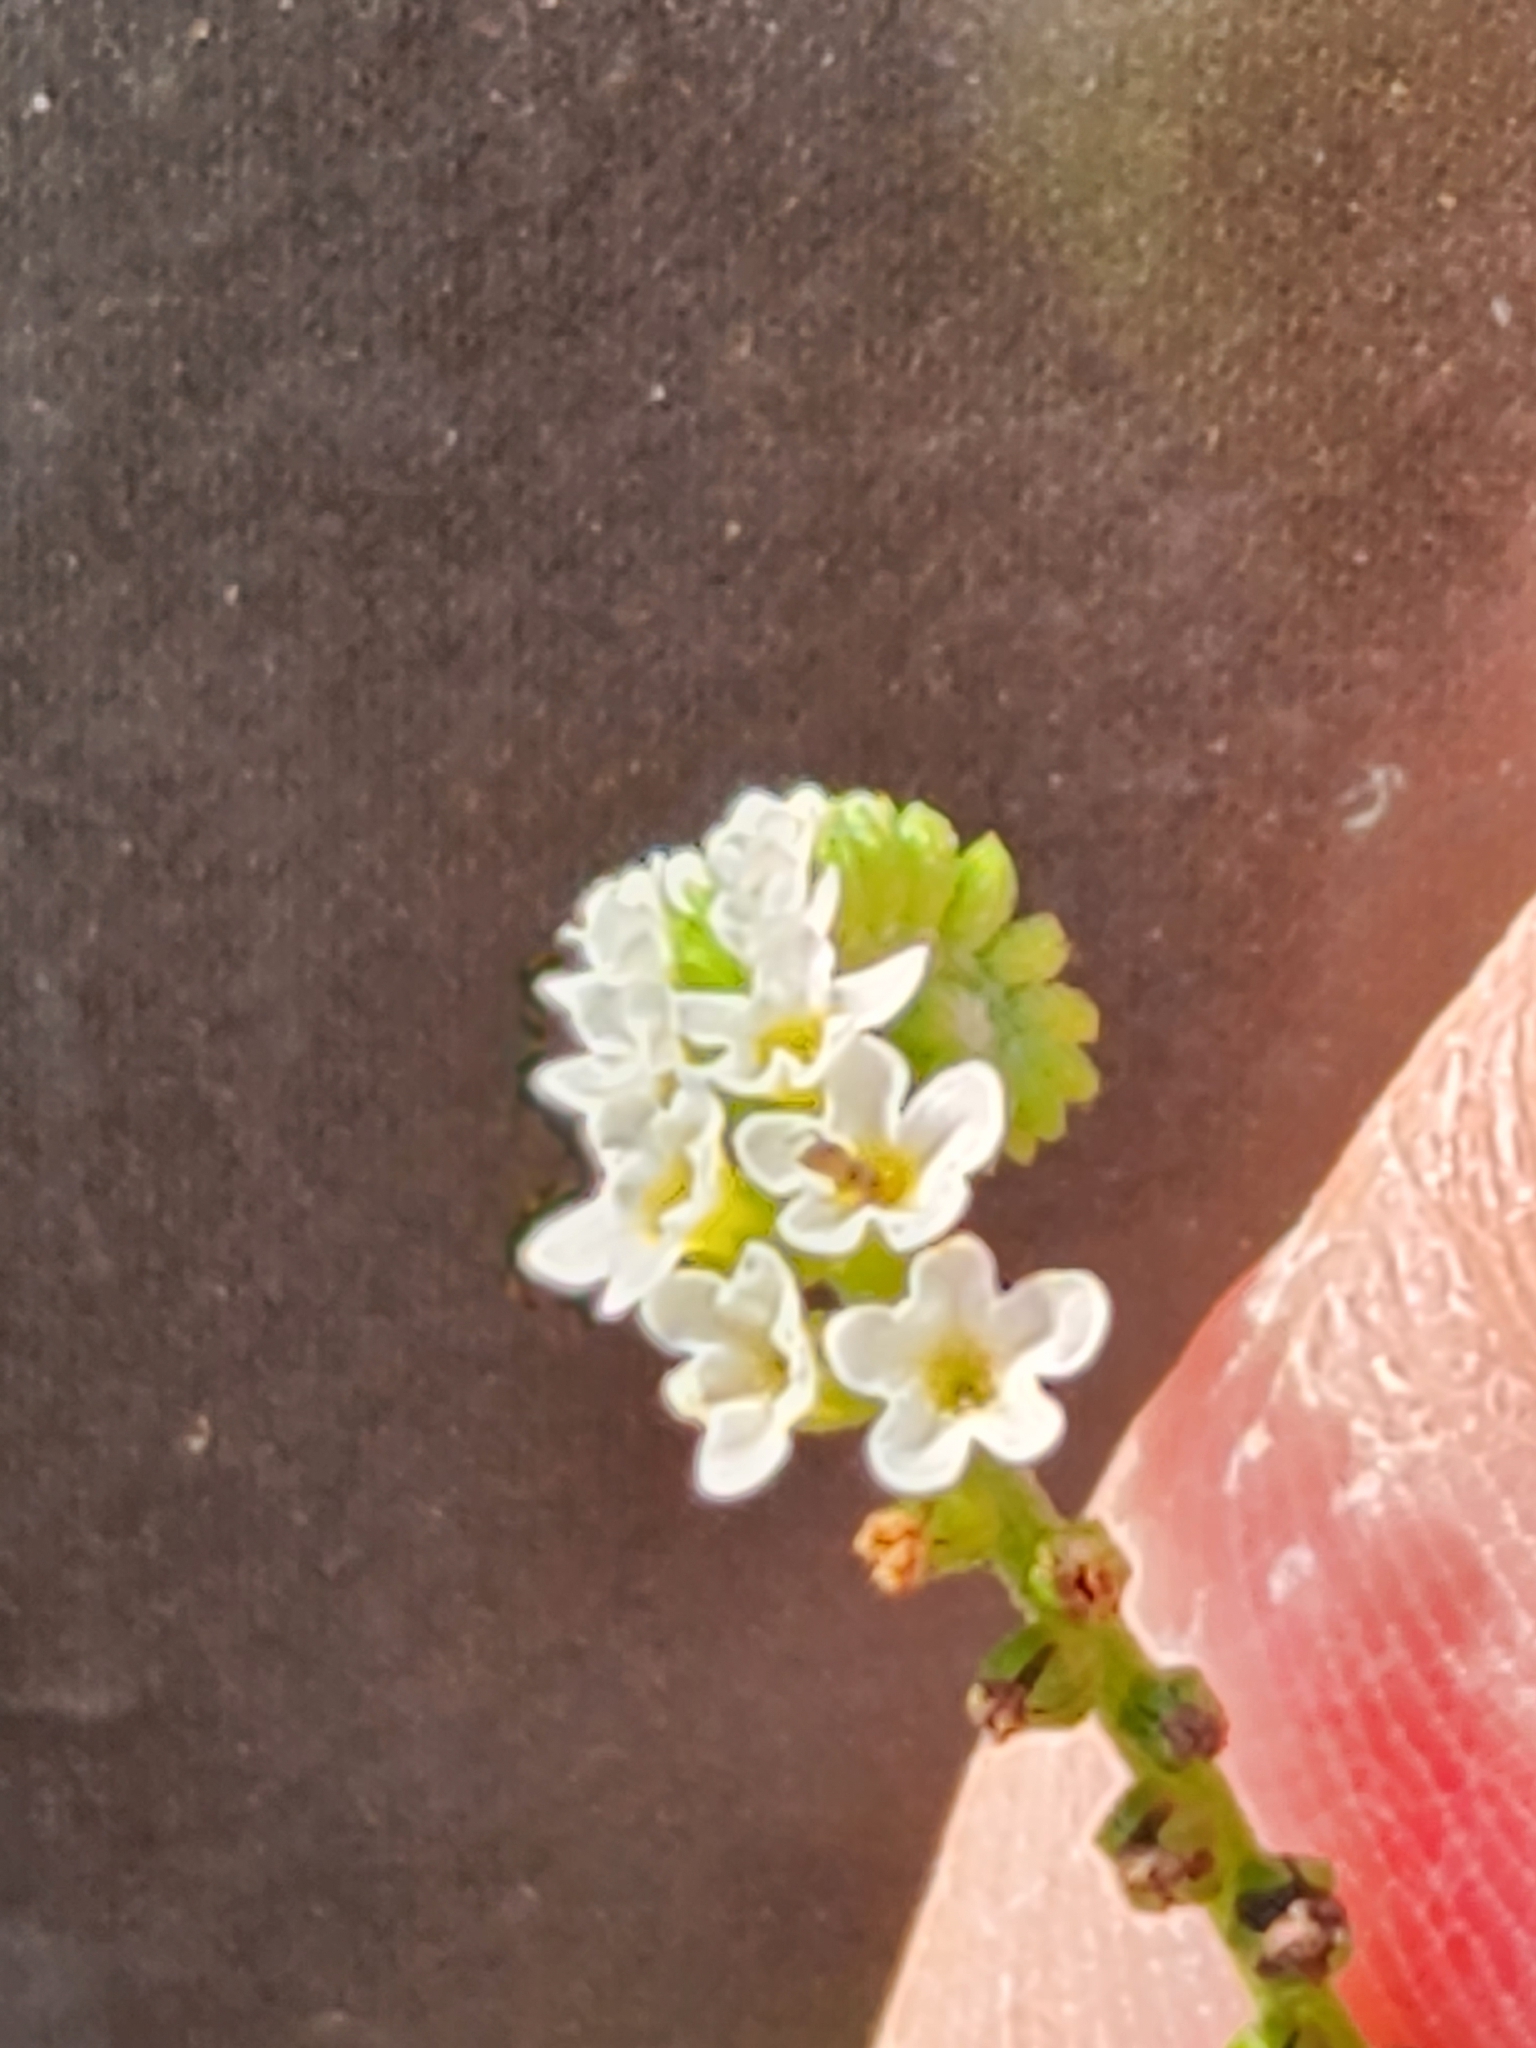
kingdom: Plantae
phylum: Tracheophyta
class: Magnoliopsida
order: Boraginales
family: Heliotropiaceae
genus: Heliotropium
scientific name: Heliotropium angiospermum
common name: Eye bright
